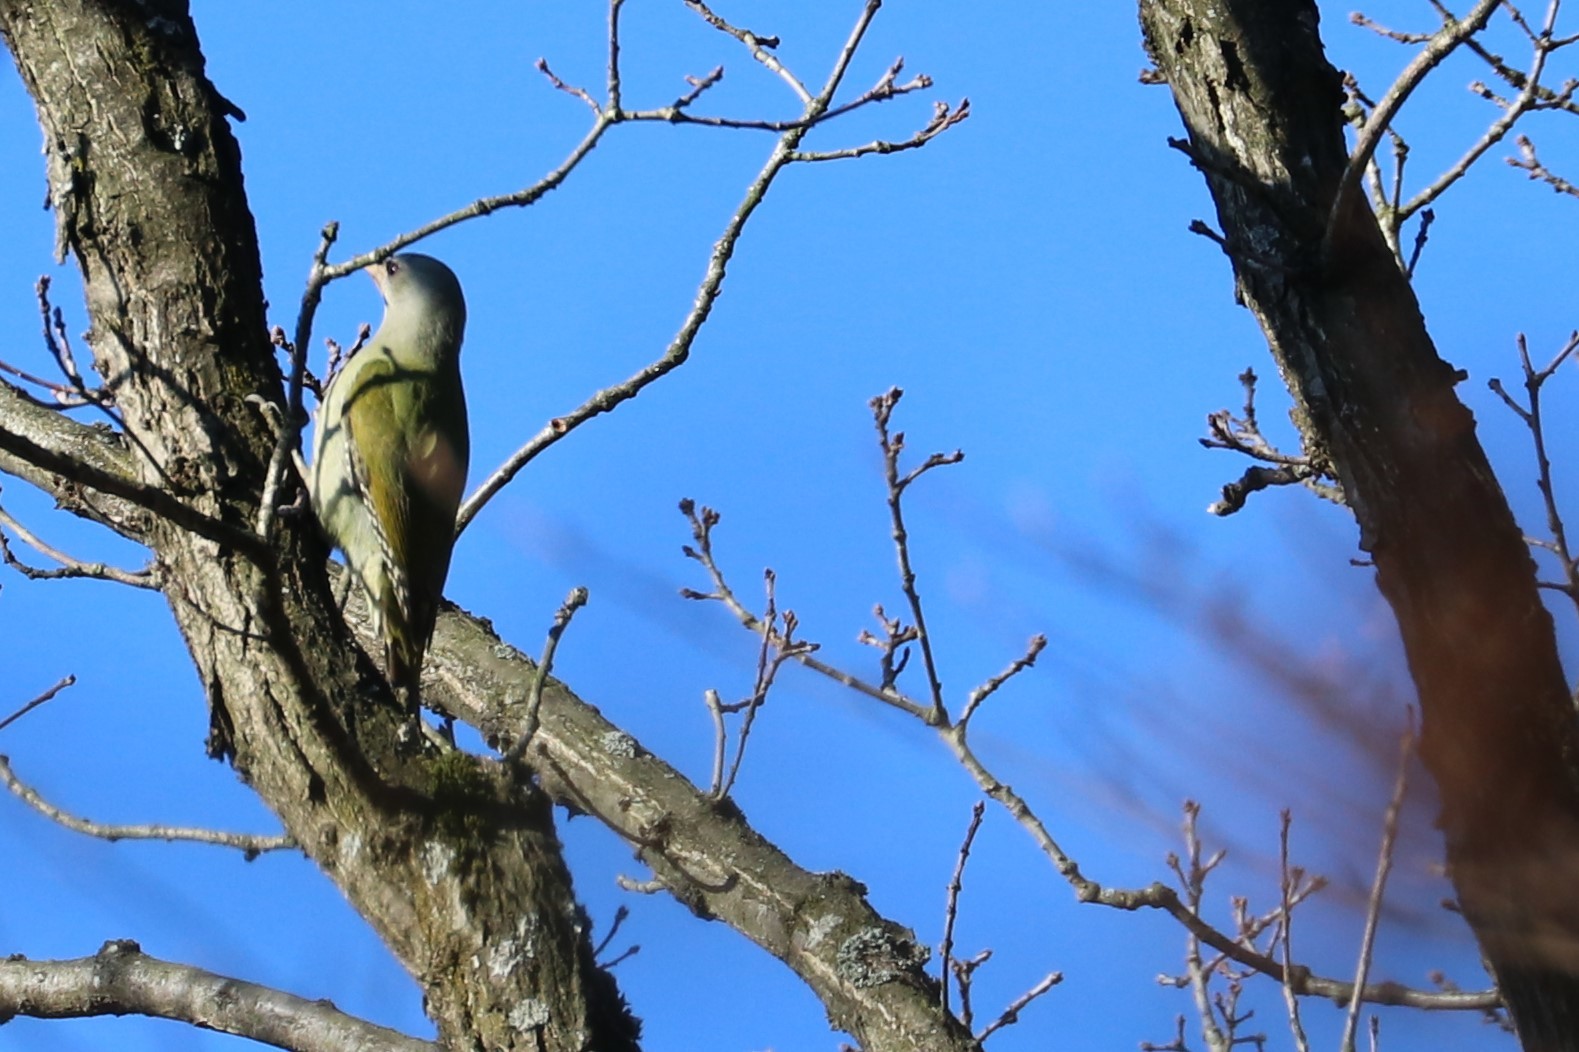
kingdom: Animalia
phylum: Chordata
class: Aves
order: Piciformes
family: Picidae
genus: Picus
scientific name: Picus canus
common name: Grey-headed woodpecker
